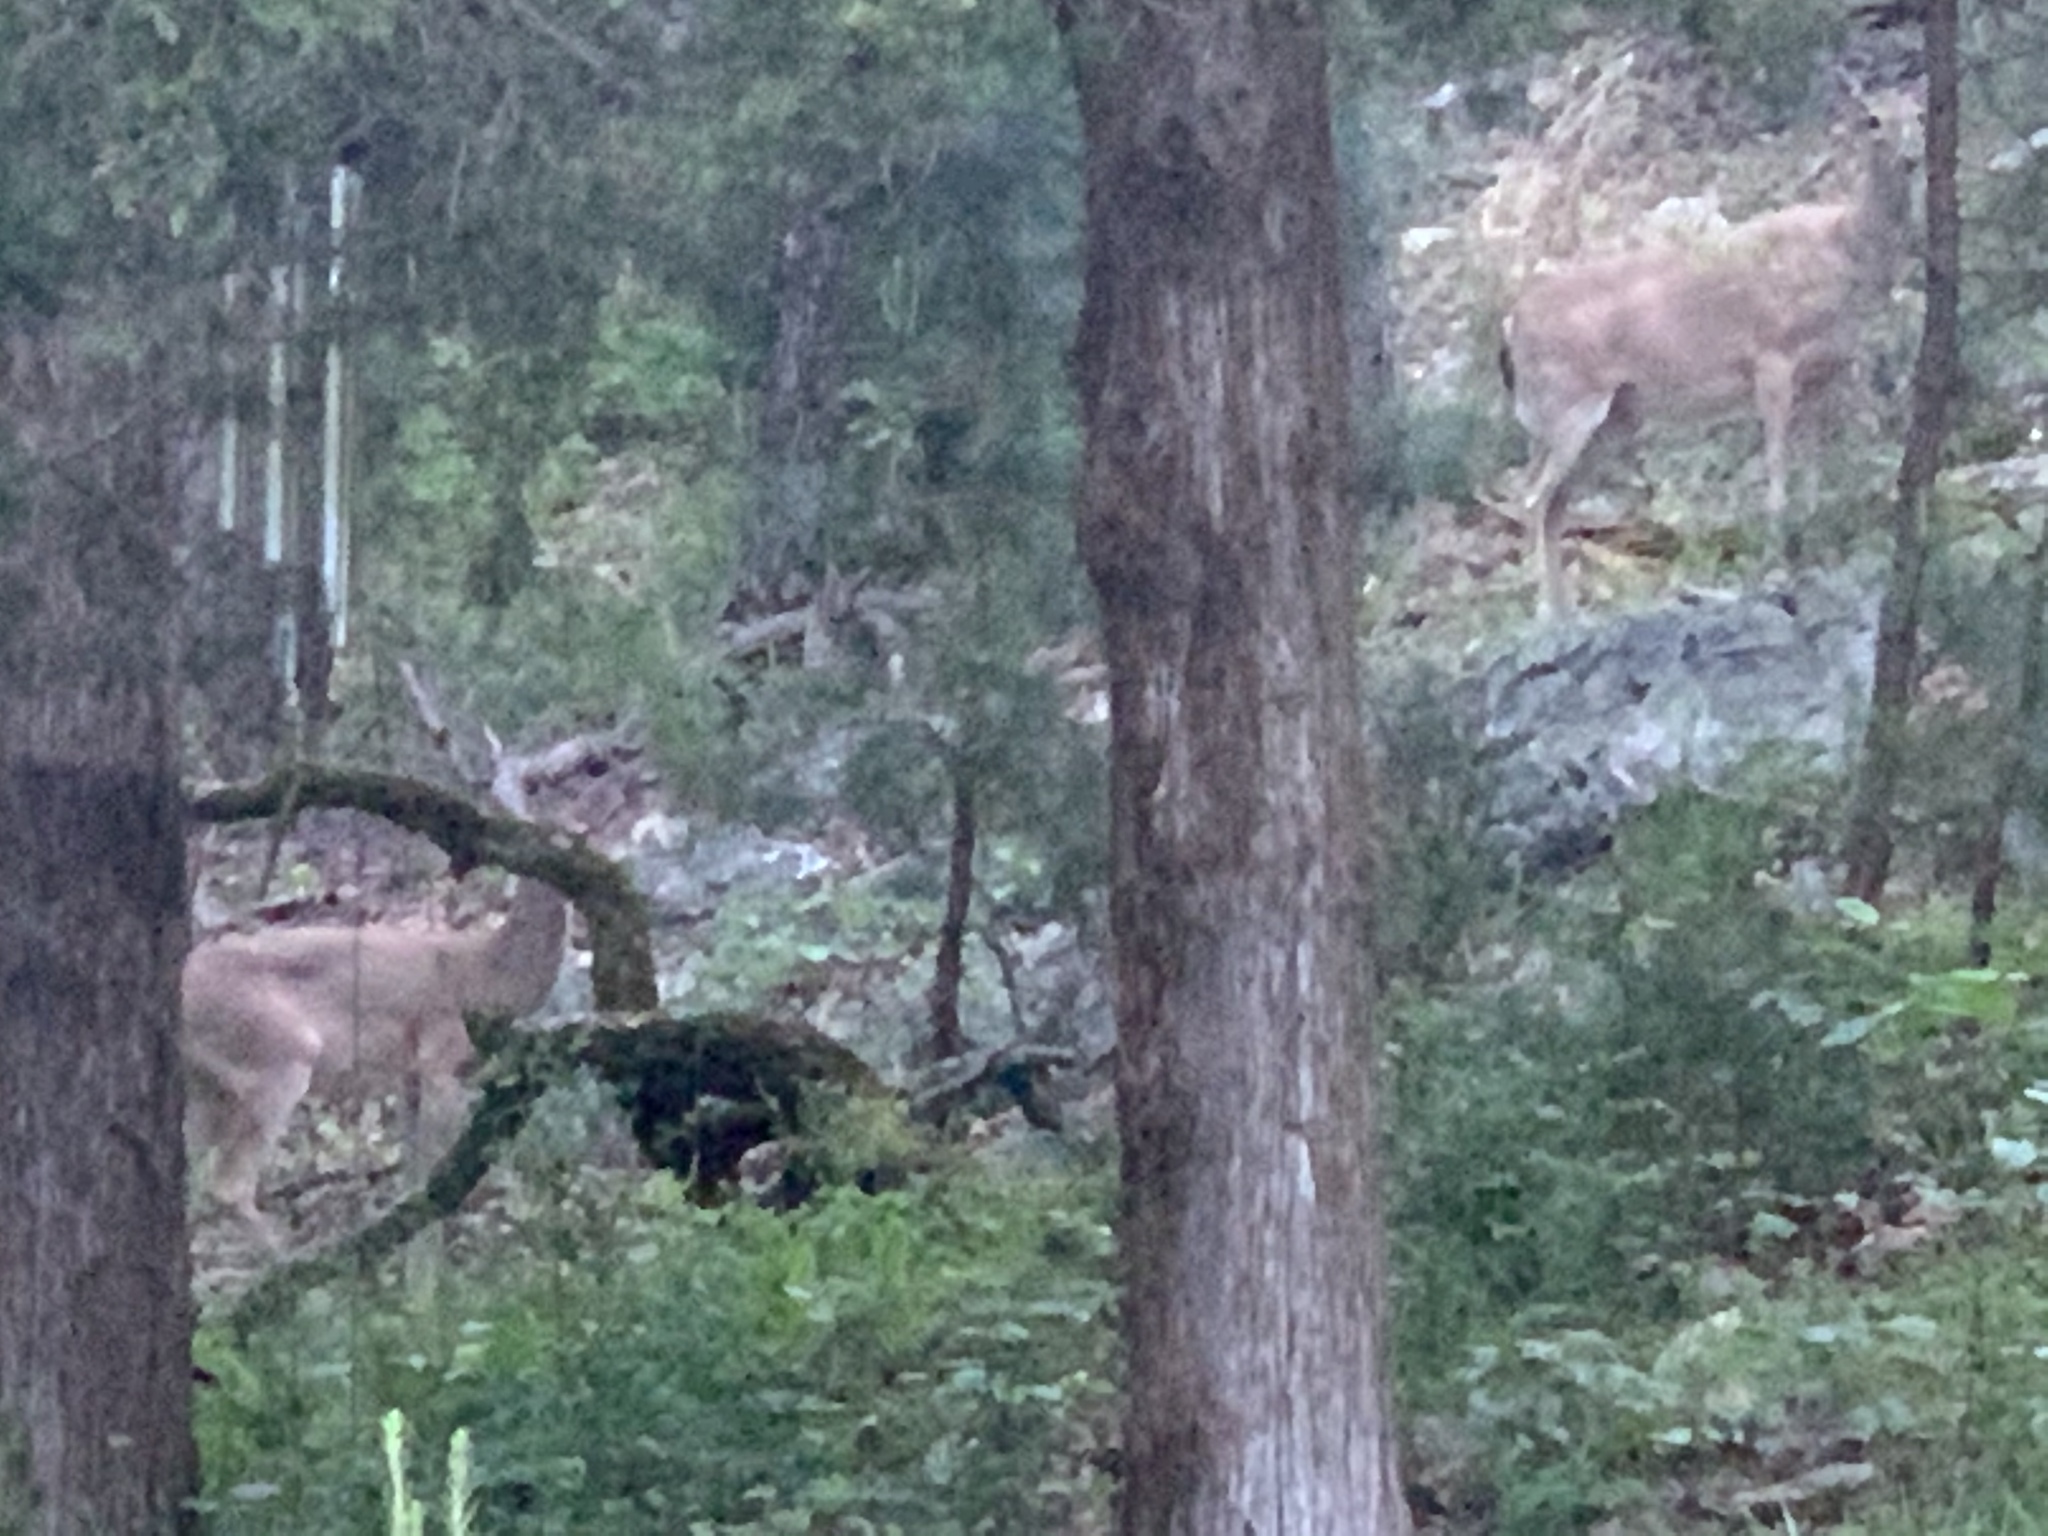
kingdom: Animalia
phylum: Chordata
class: Mammalia
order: Artiodactyla
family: Cervidae
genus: Odocoileus
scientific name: Odocoileus virginianus
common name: White-tailed deer
